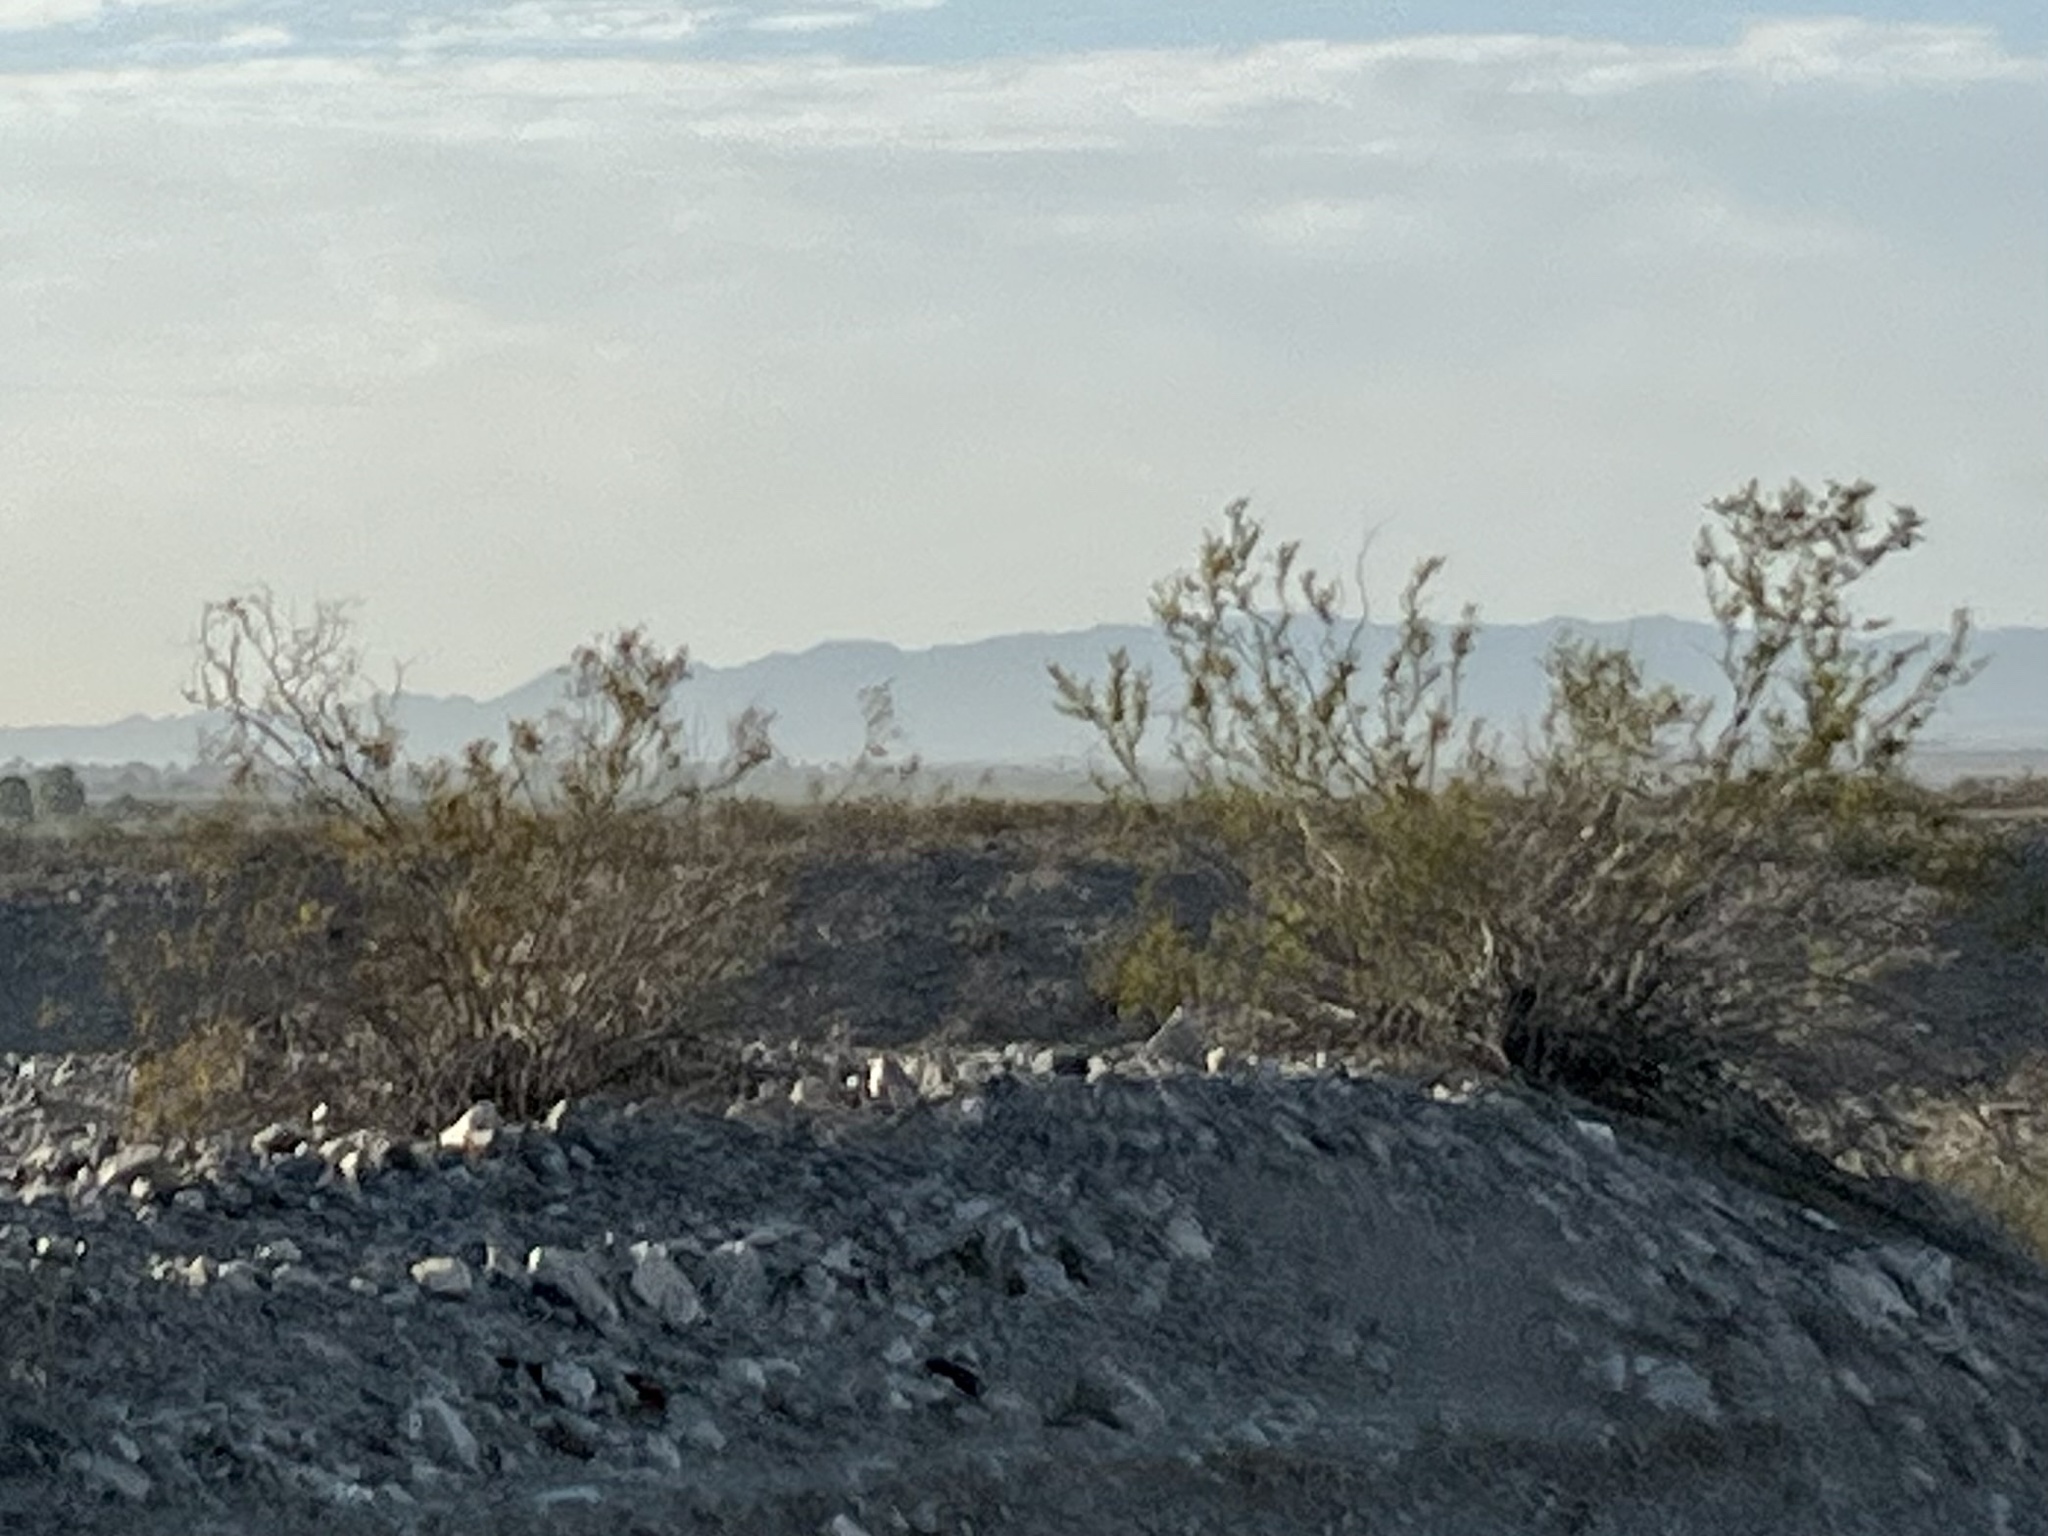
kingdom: Plantae
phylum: Tracheophyta
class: Magnoliopsida
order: Zygophyllales
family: Zygophyllaceae
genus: Larrea
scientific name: Larrea tridentata
